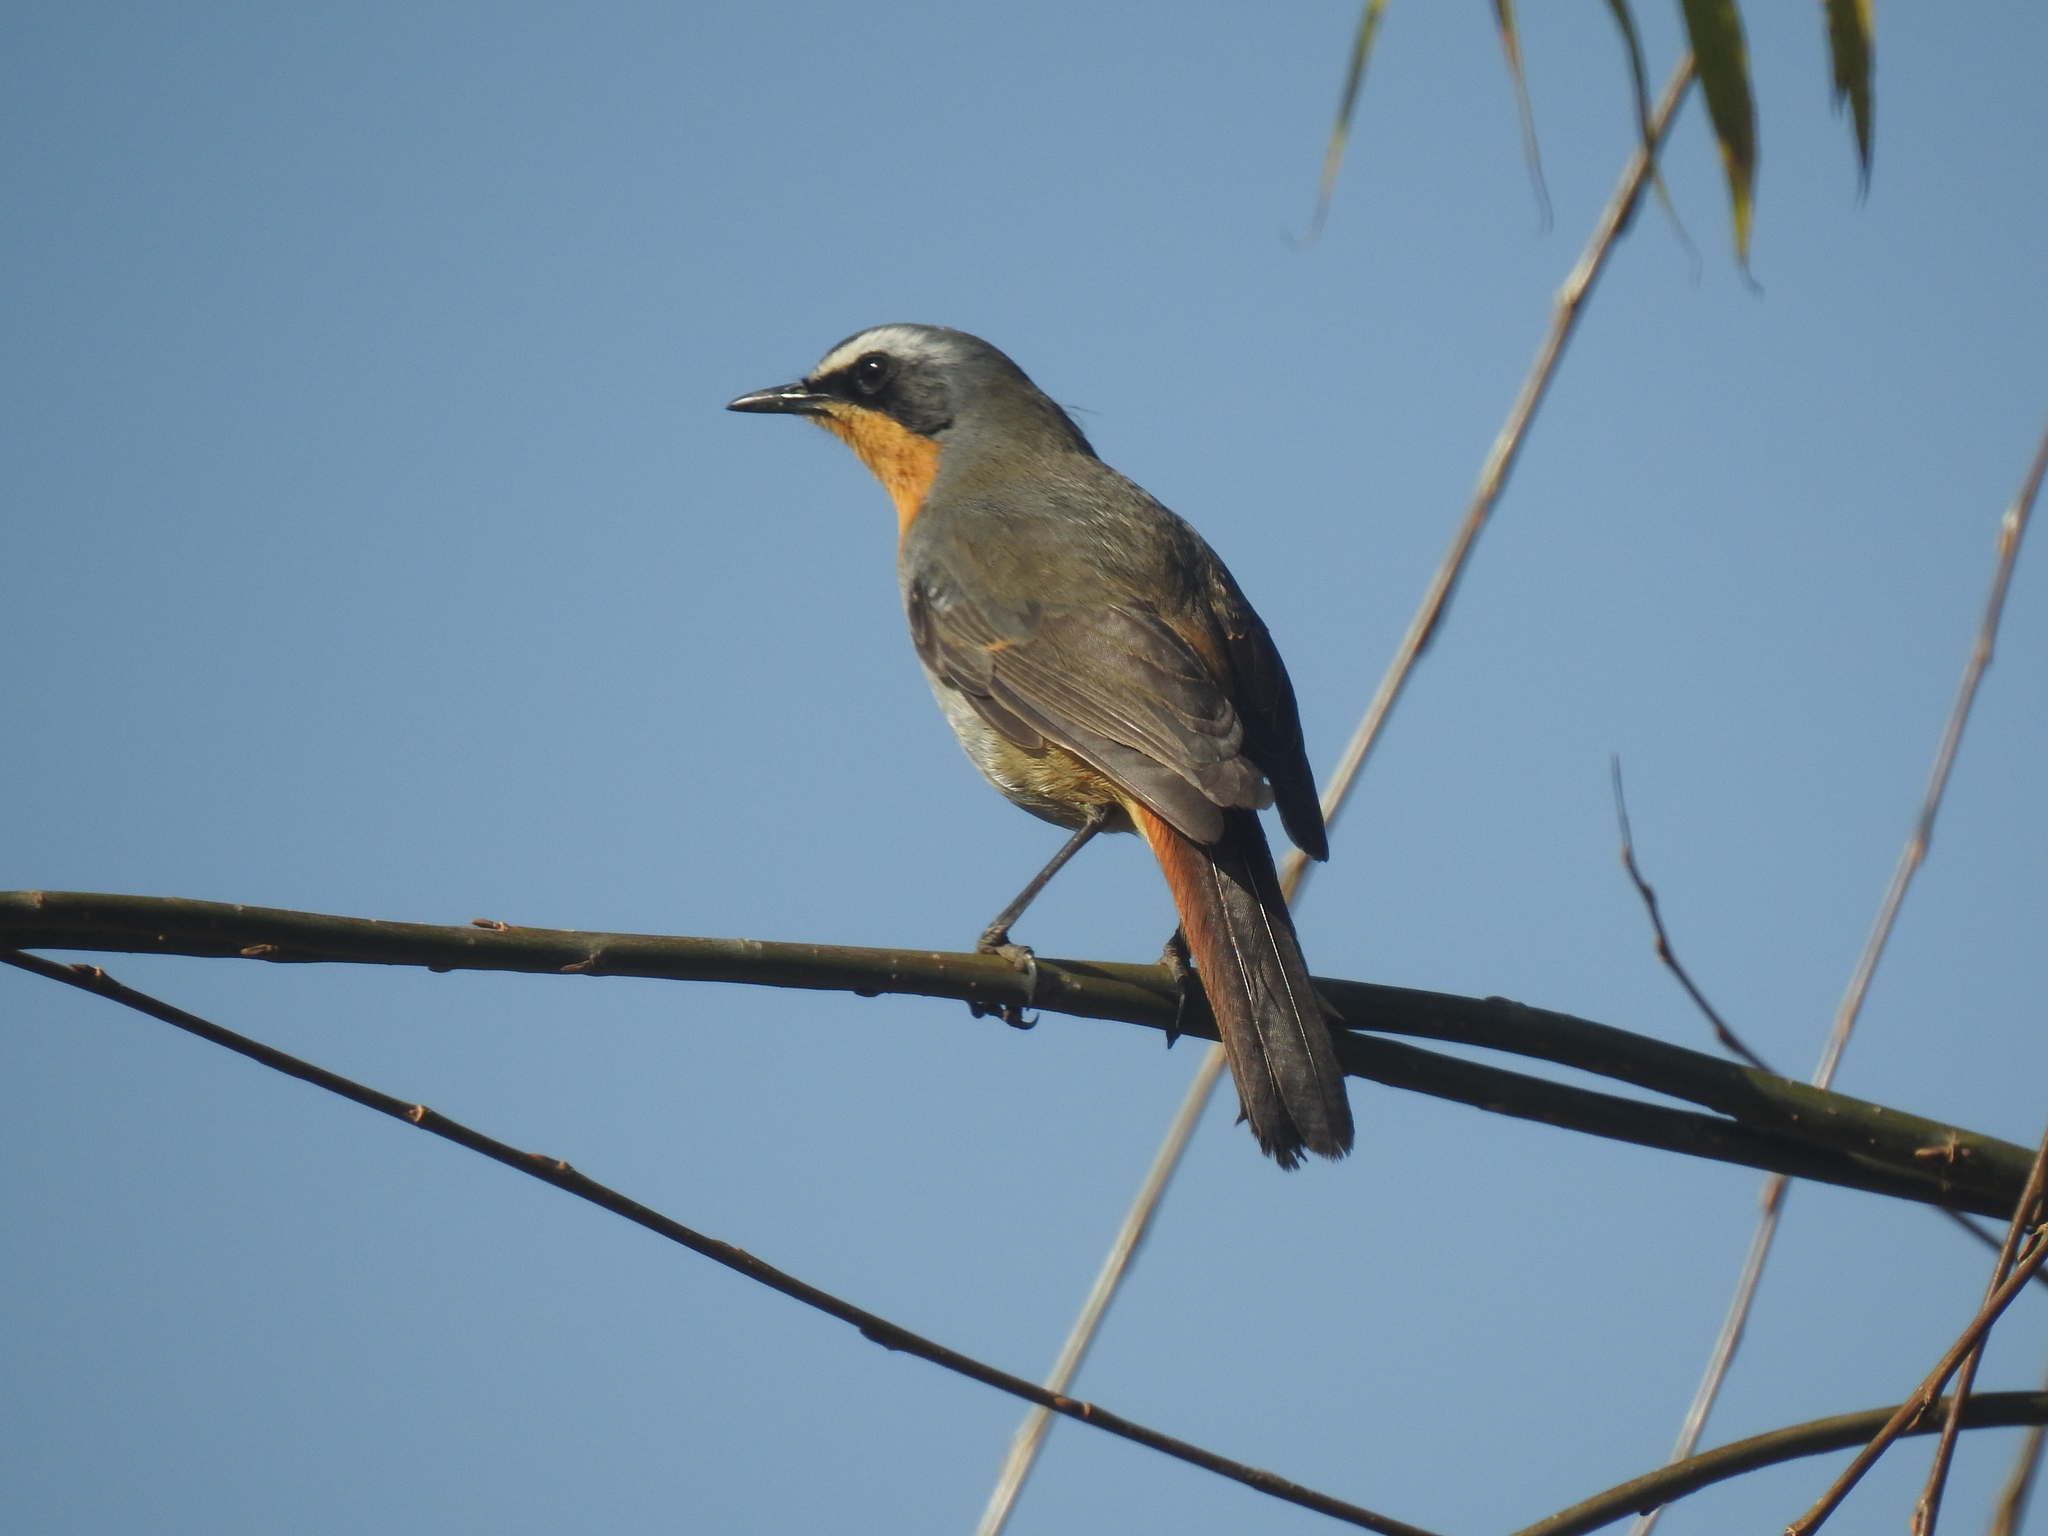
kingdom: Animalia
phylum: Chordata
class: Aves
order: Passeriformes
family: Muscicapidae
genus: Cossypha
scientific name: Cossypha caffra
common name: Cape robin-chat
